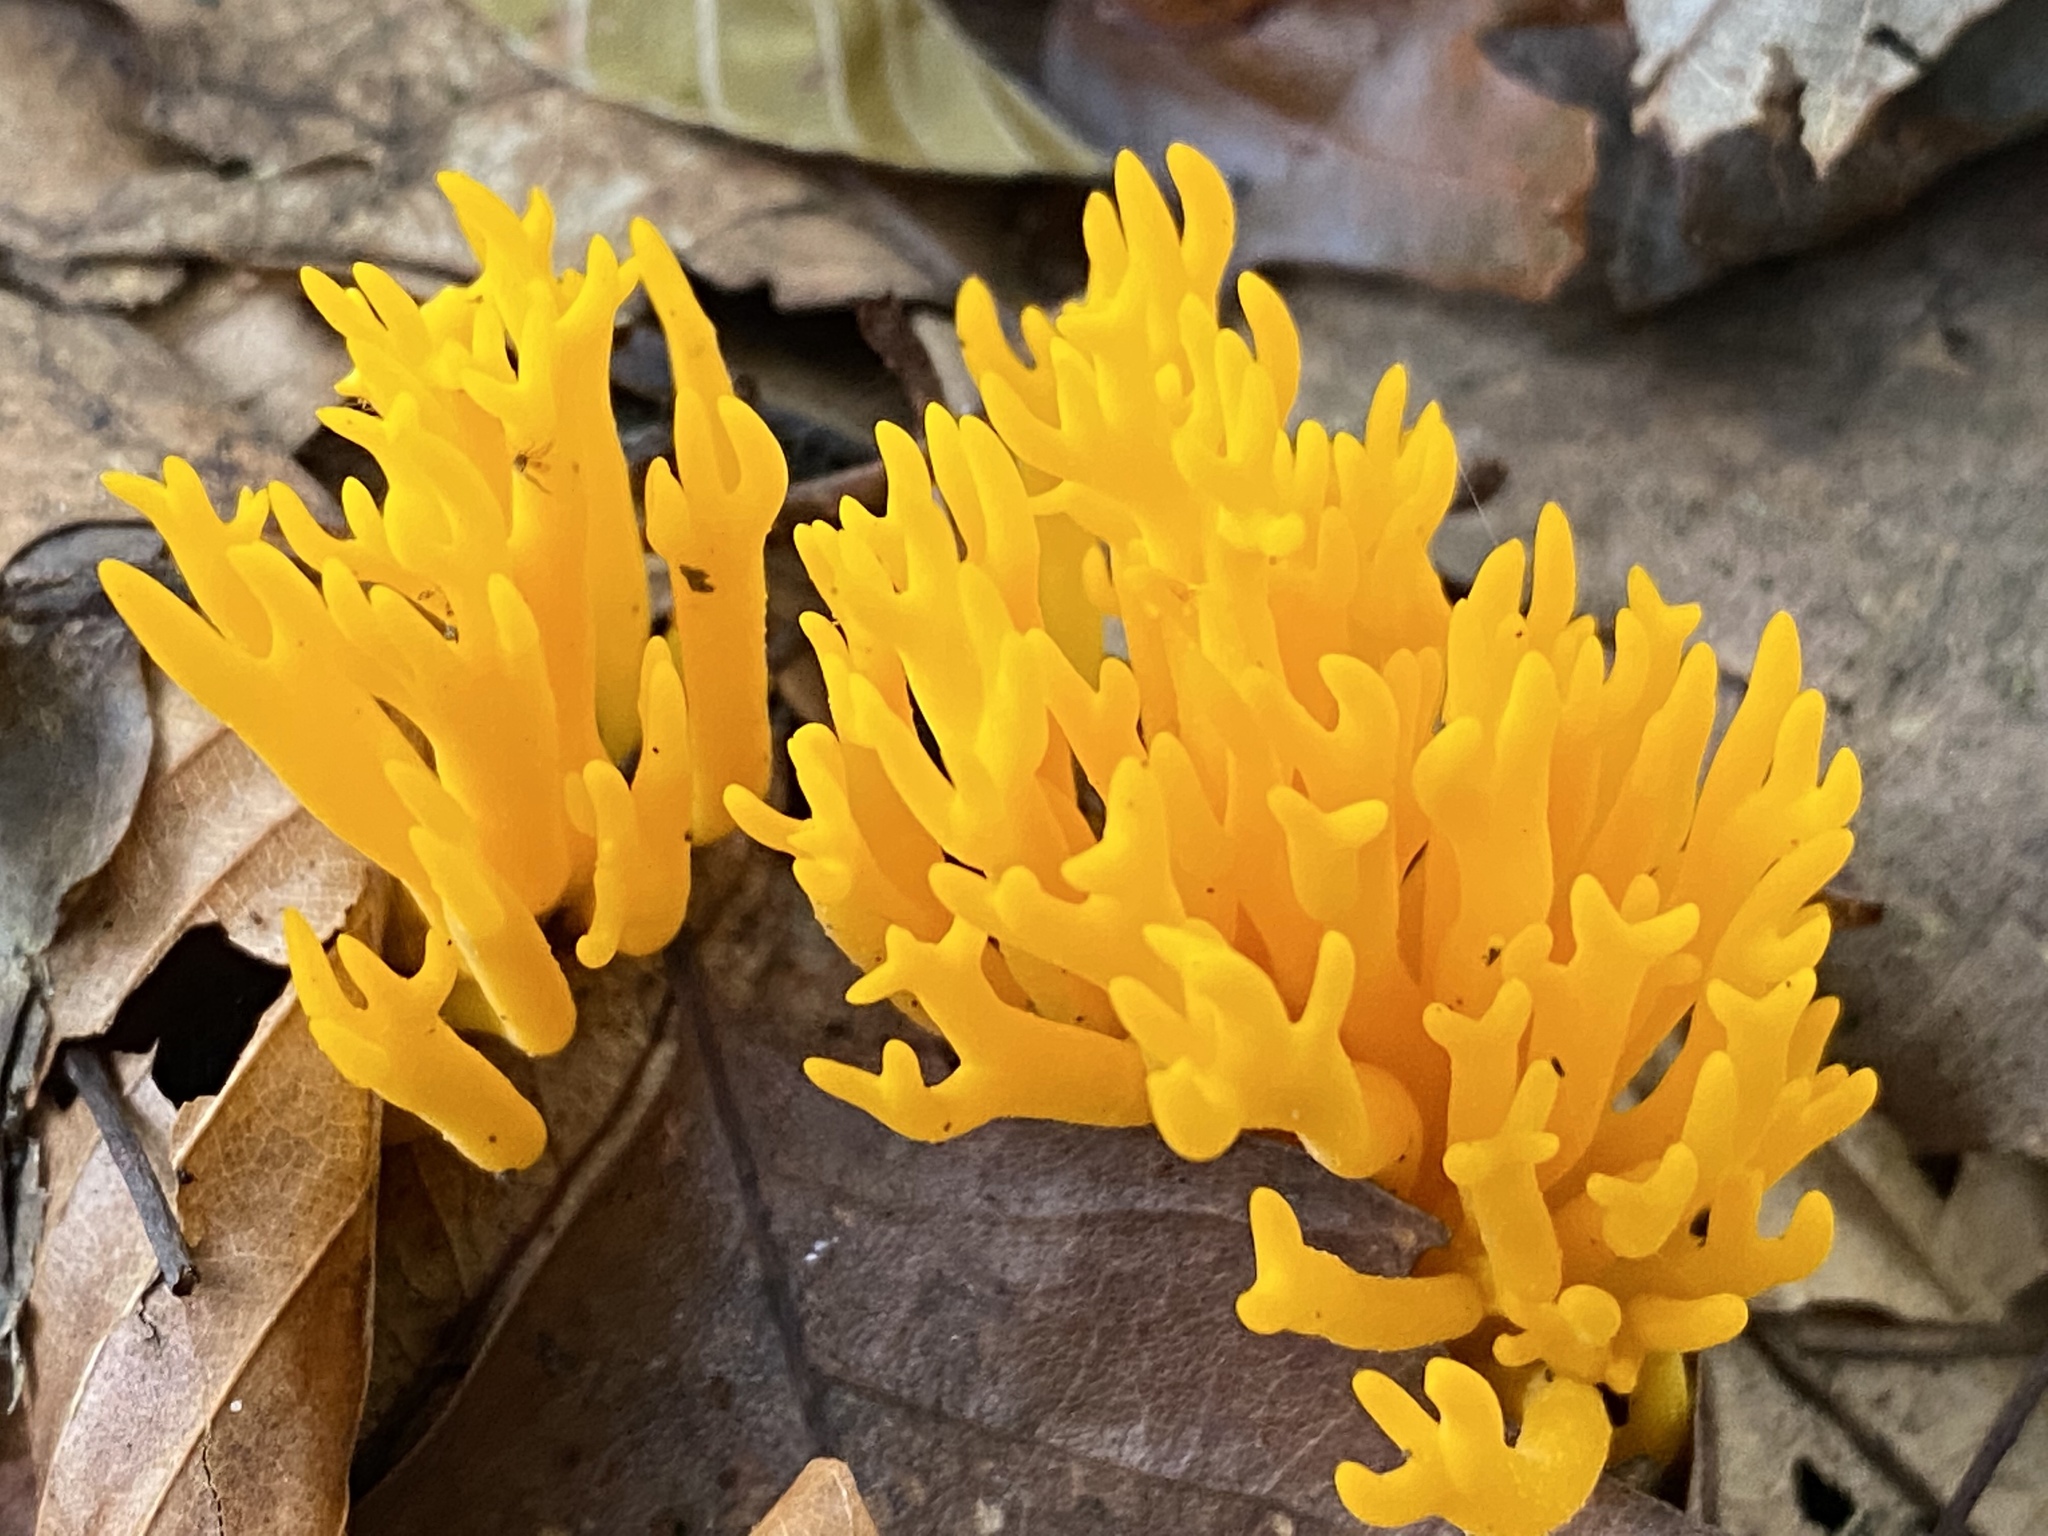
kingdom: Fungi
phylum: Basidiomycota
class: Dacrymycetes
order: Dacrymycetales
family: Dacrymycetaceae
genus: Calocera
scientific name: Calocera viscosa
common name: Yellow stagshorn
